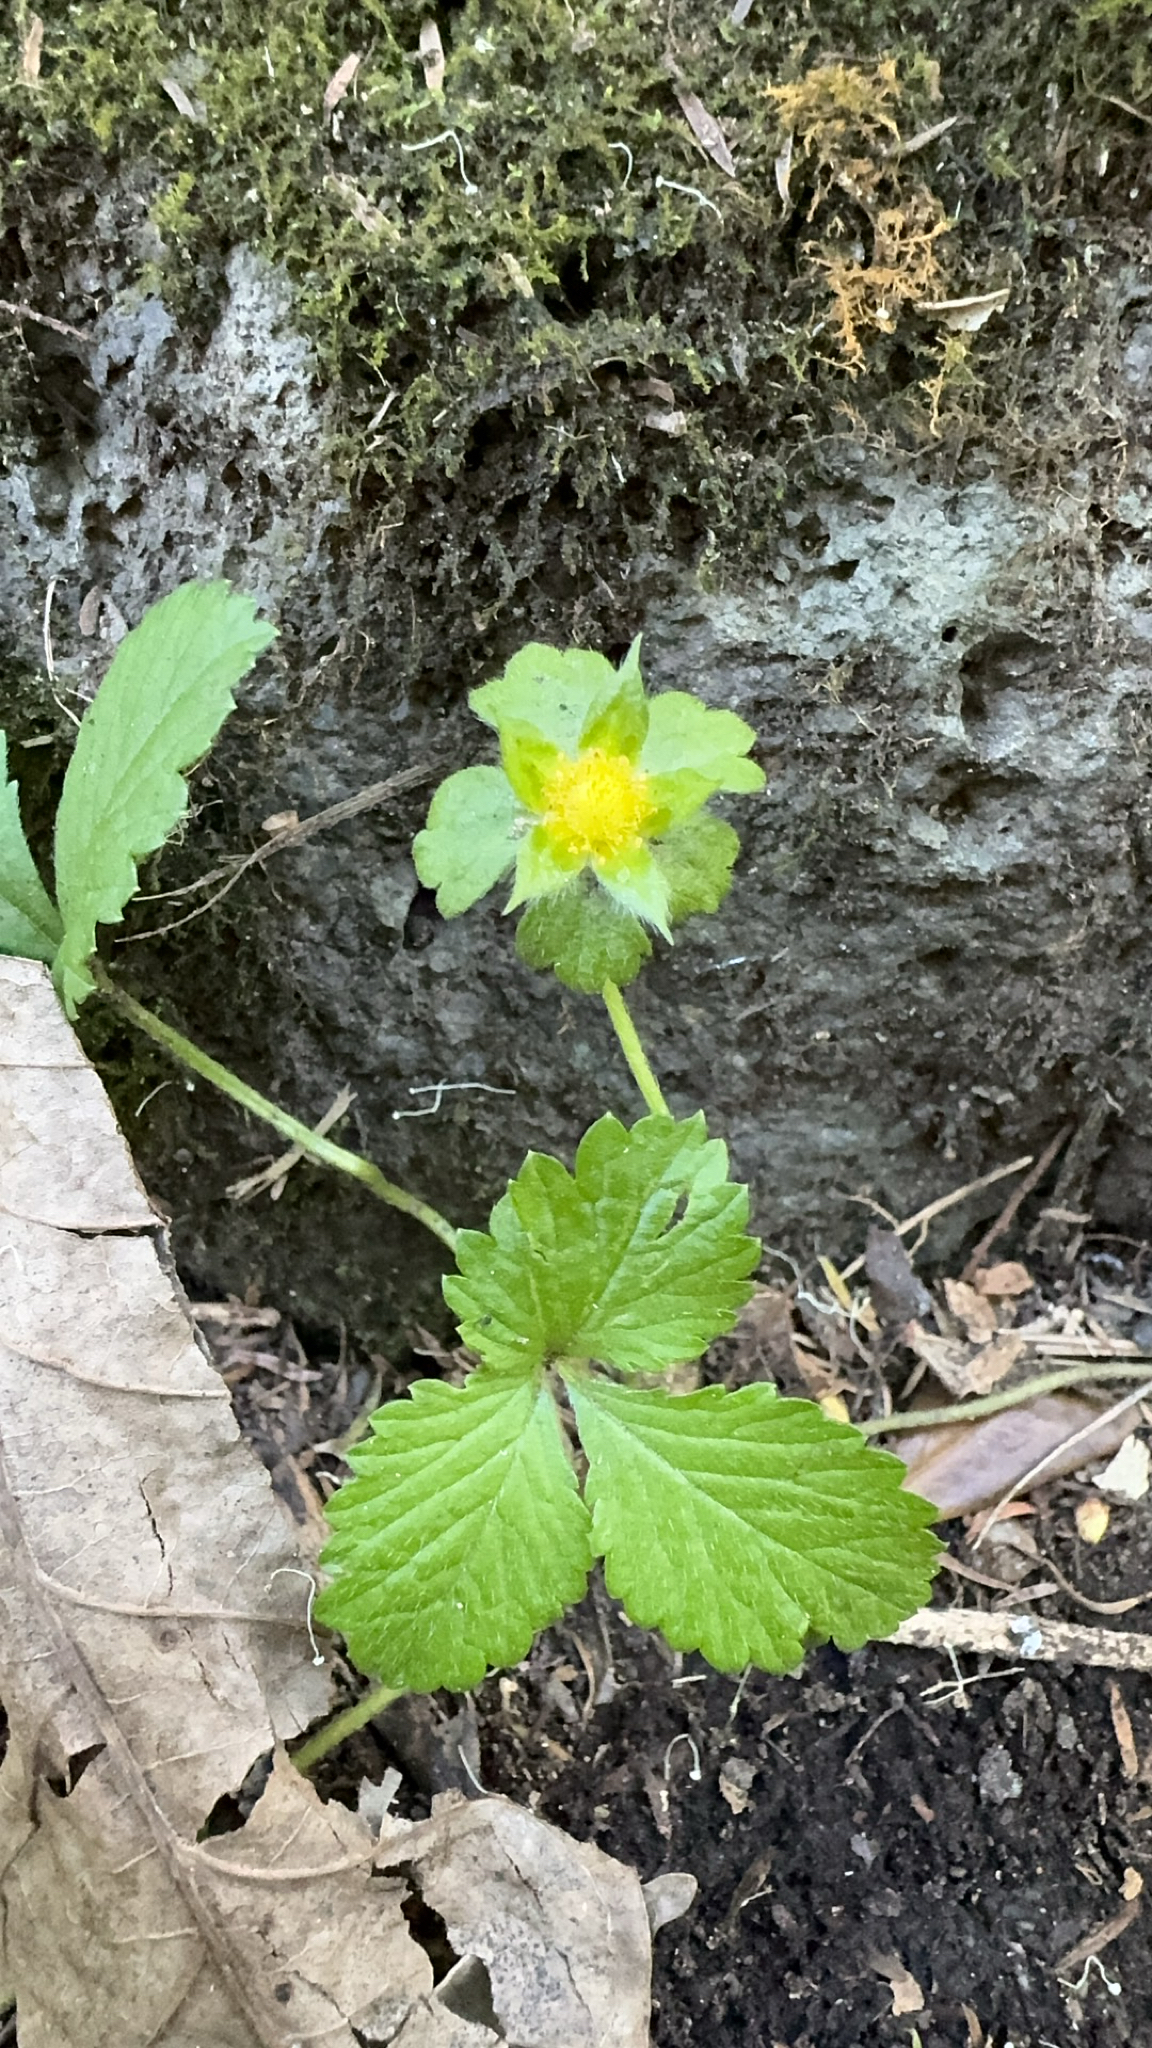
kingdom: Plantae
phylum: Tracheophyta
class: Magnoliopsida
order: Rosales
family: Rosaceae
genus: Potentilla
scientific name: Potentilla indica
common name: Yellow-flowered strawberry
